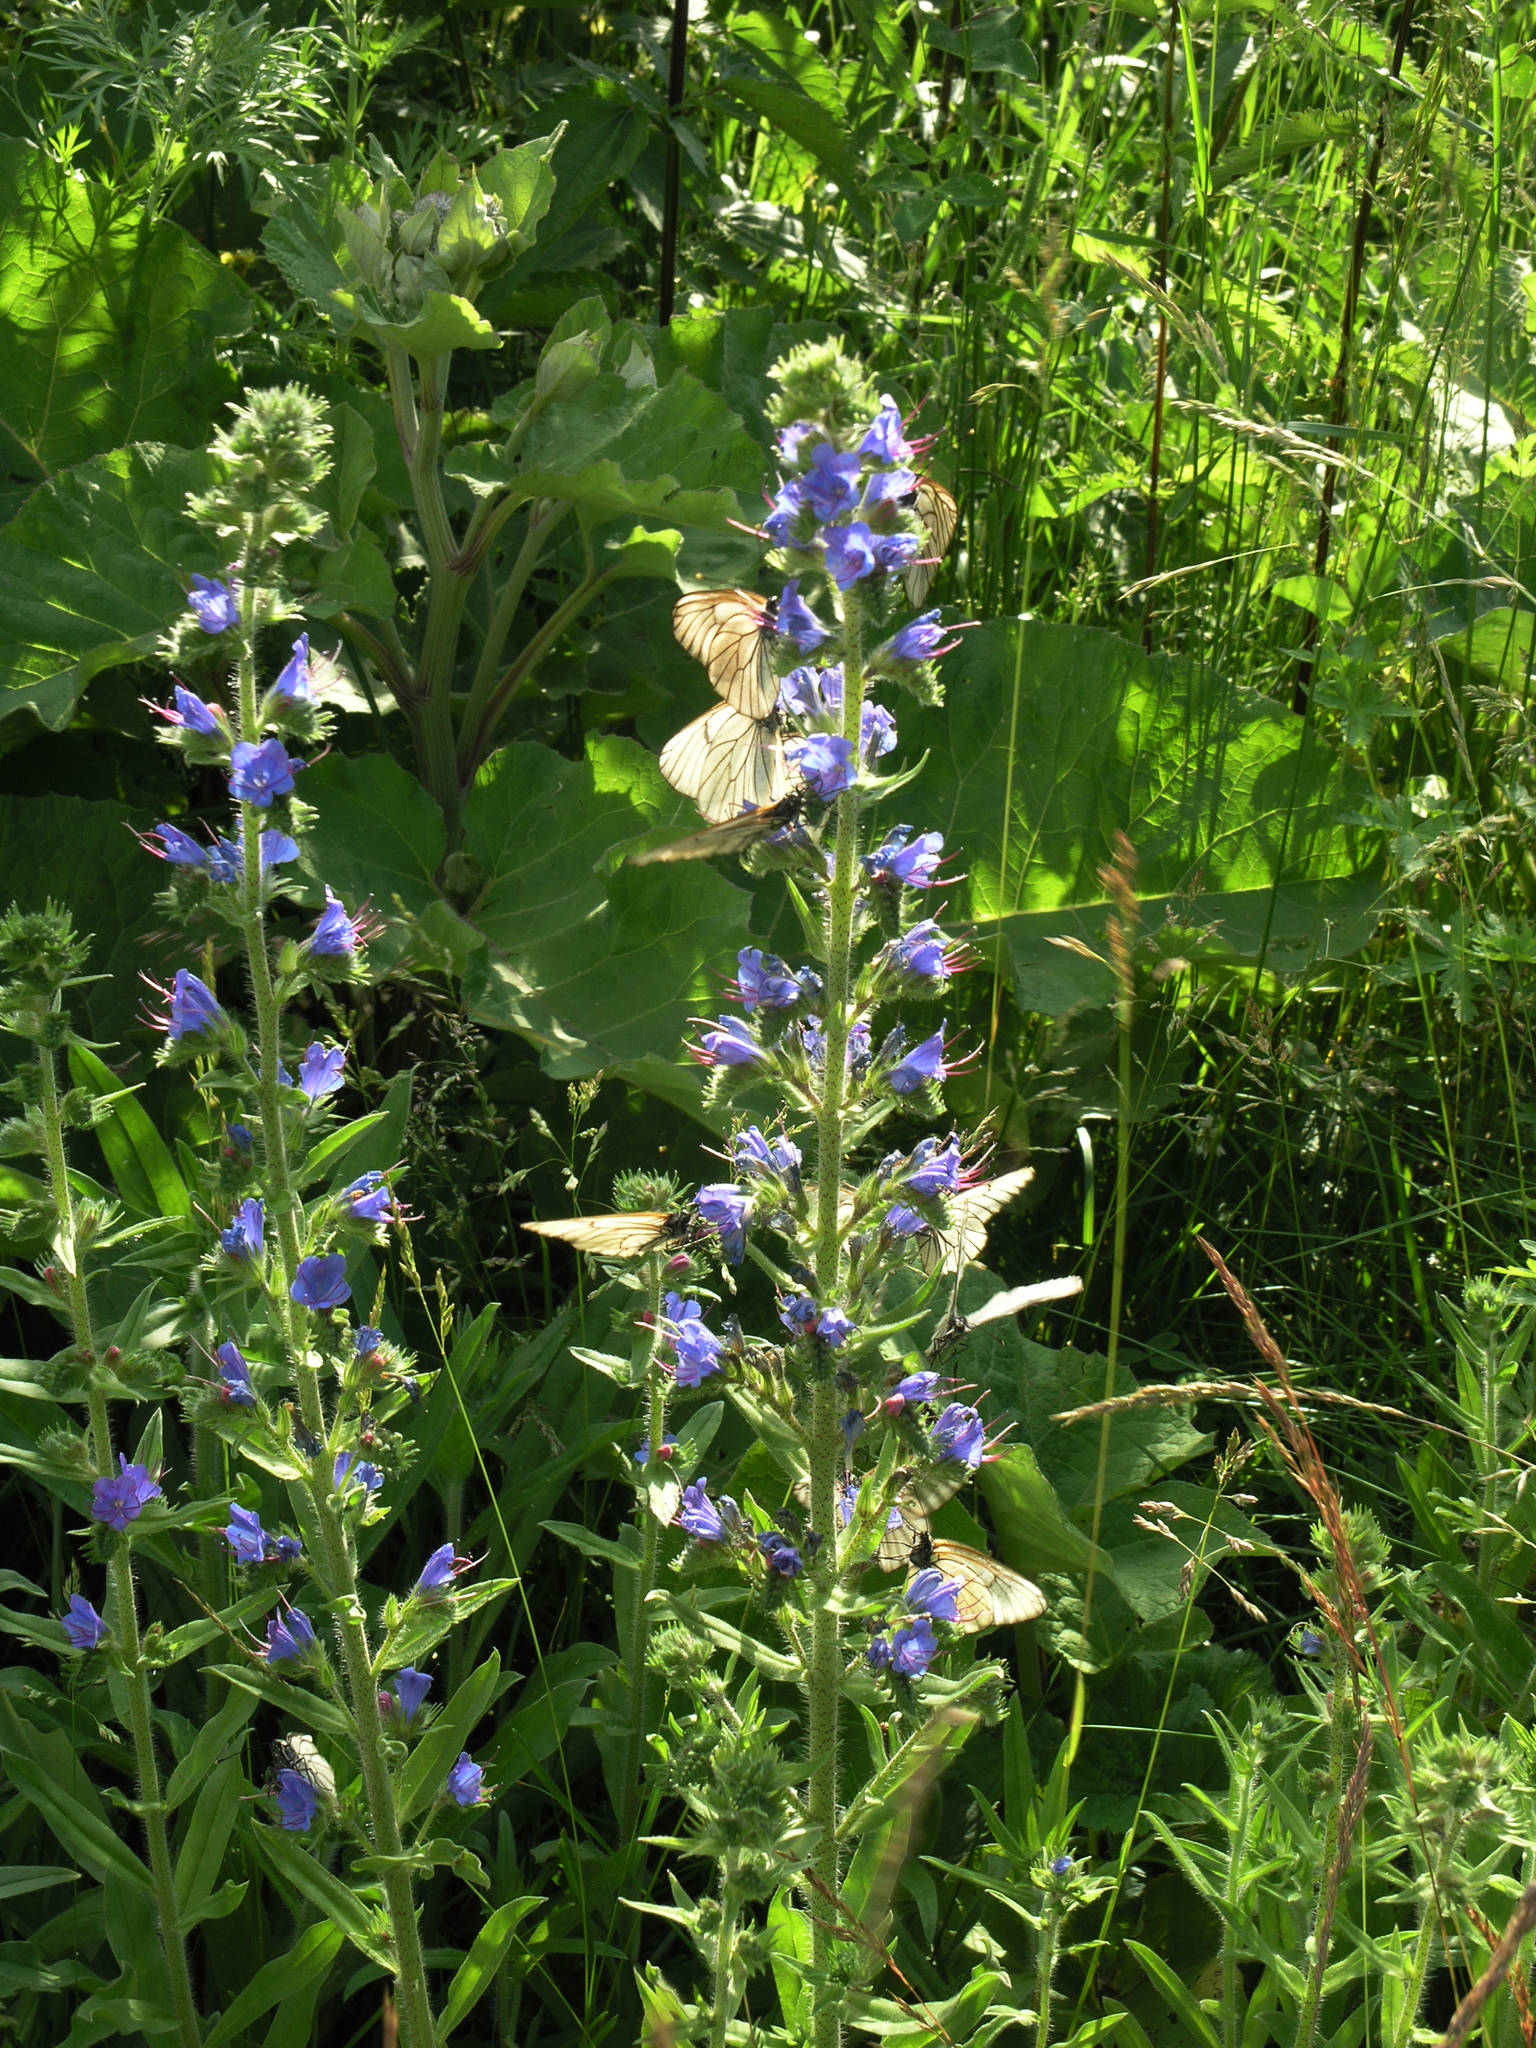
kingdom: Plantae
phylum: Tracheophyta
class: Magnoliopsida
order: Boraginales
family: Boraginaceae
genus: Echium
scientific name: Echium vulgare
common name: Common viper's bugloss
